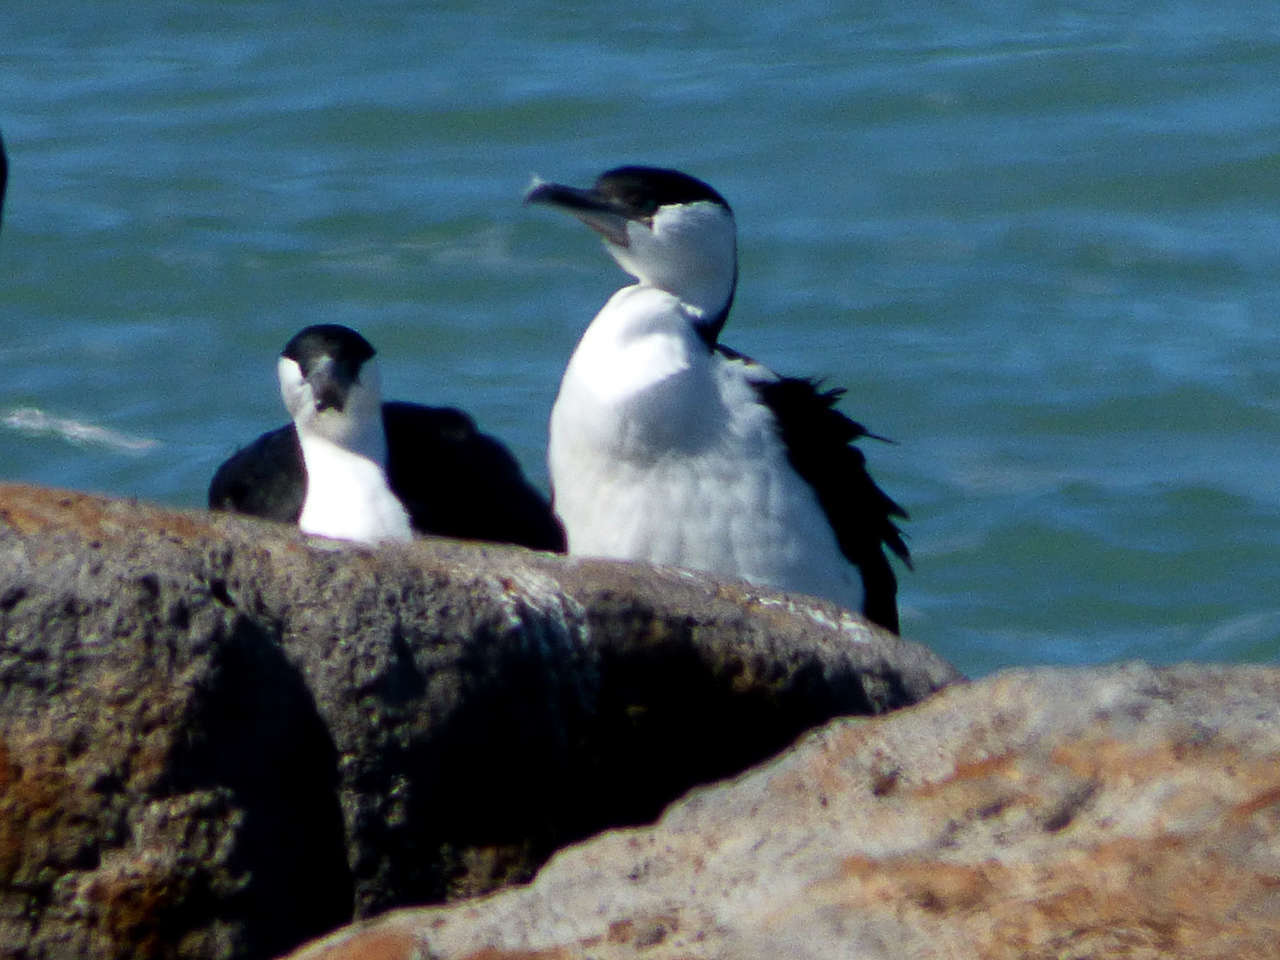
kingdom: Animalia
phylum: Chordata
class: Aves
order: Suliformes
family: Phalacrocoracidae
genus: Phalacrocorax
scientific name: Phalacrocorax fuscescens
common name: Black-faced cormorant
